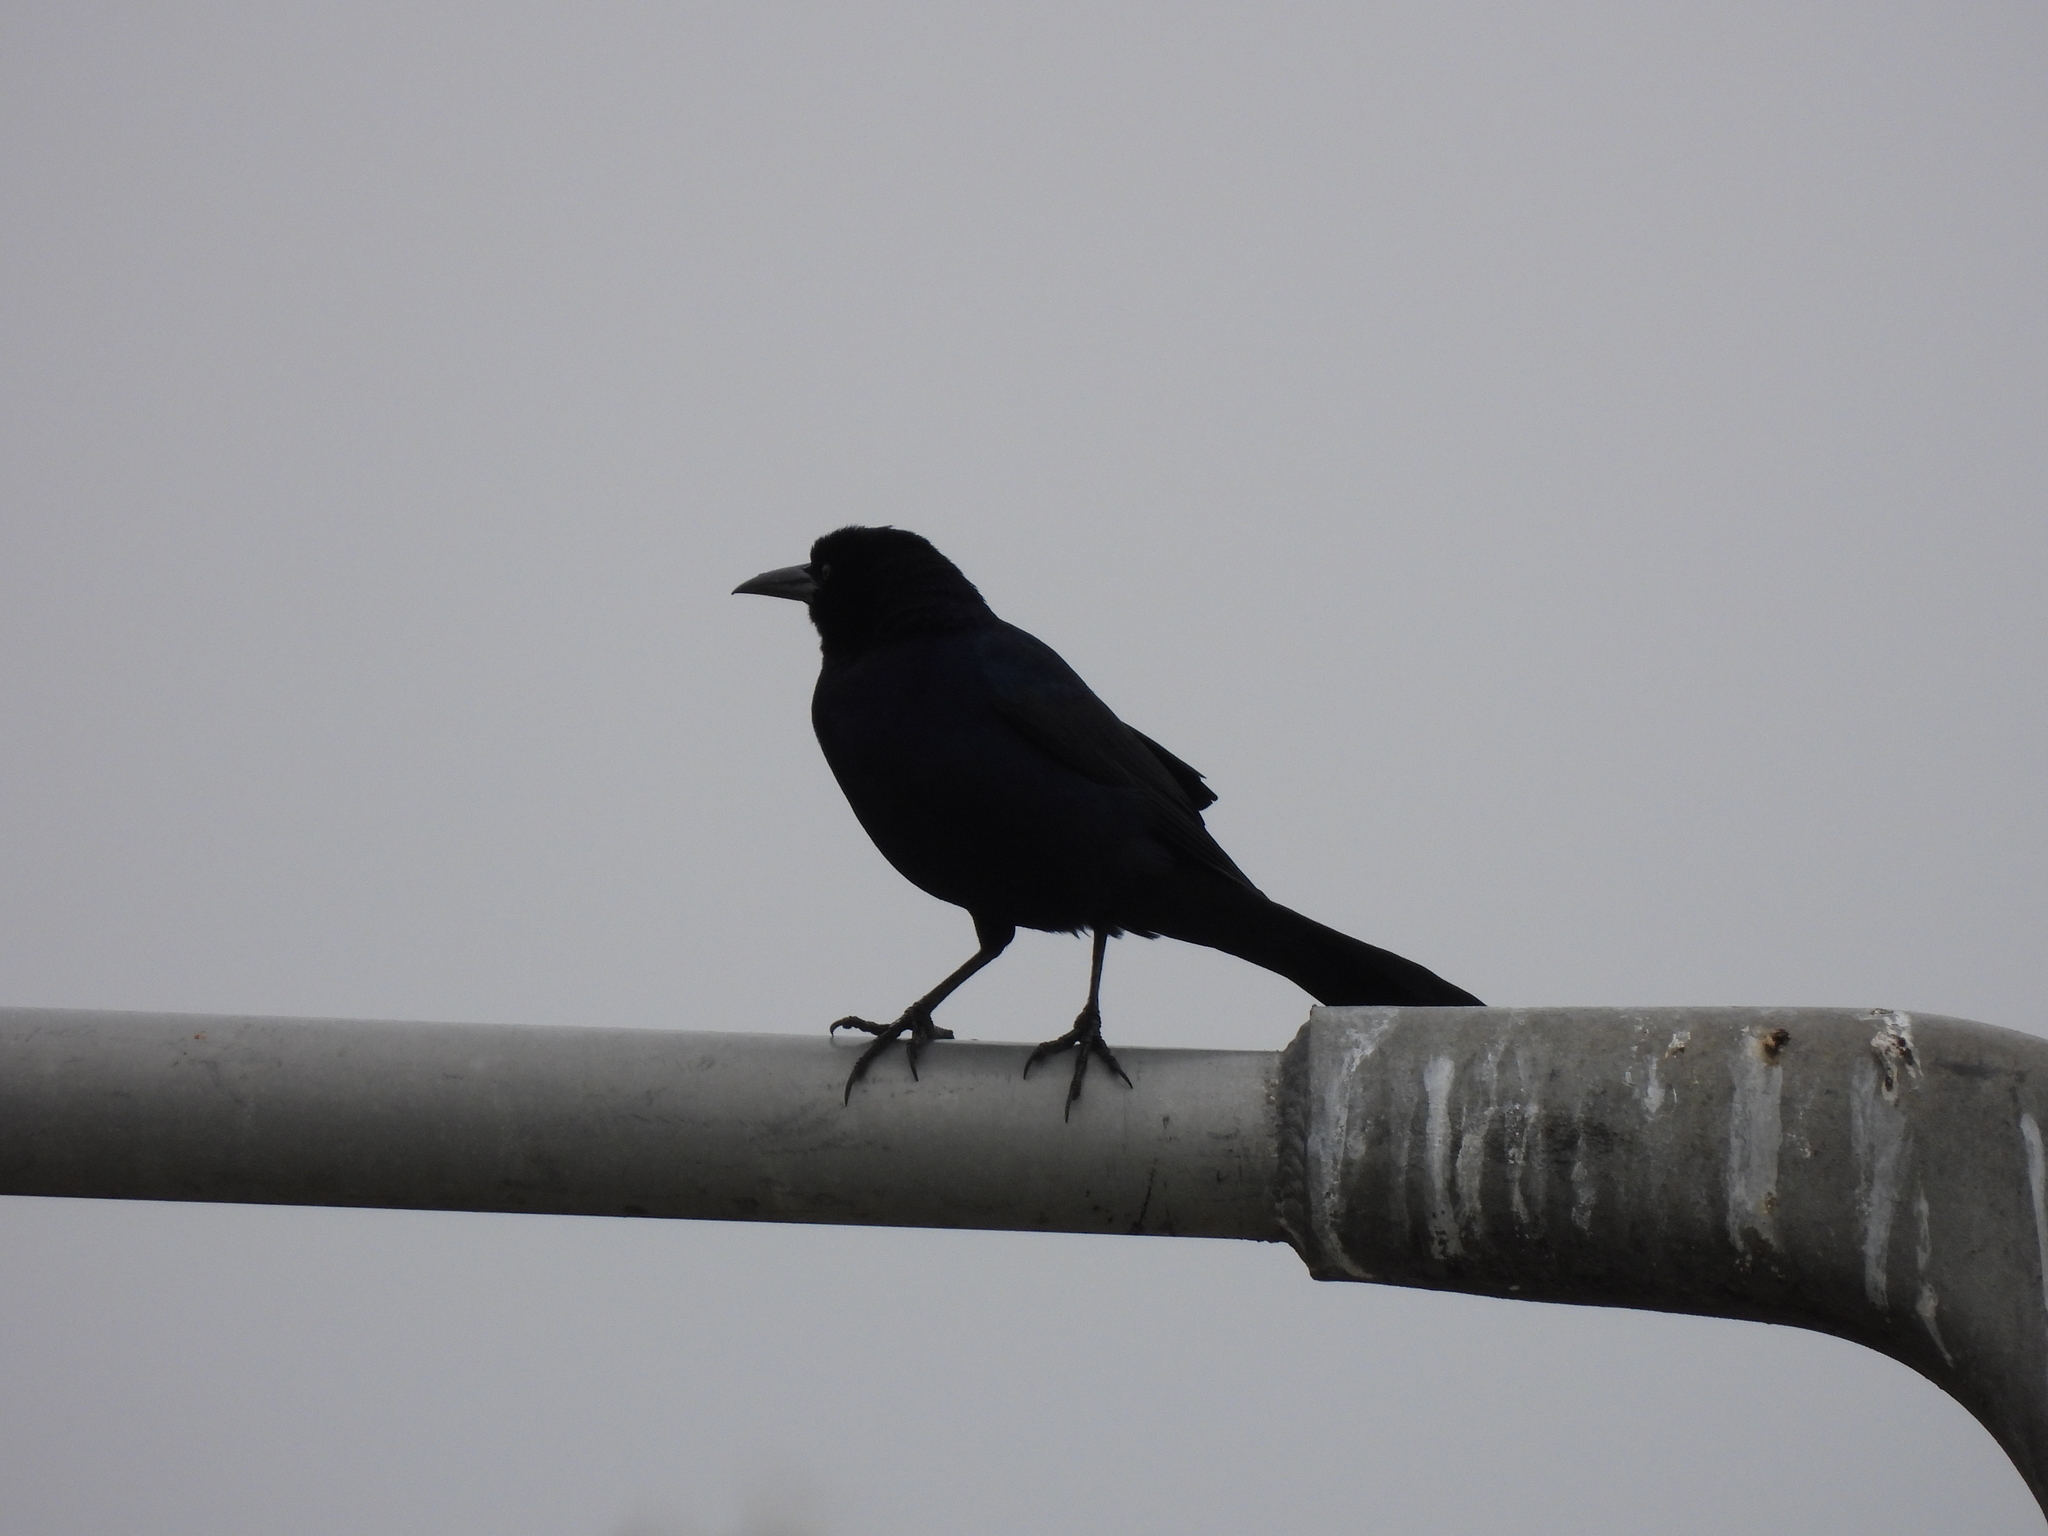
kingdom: Animalia
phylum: Chordata
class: Aves
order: Passeriformes
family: Icteridae
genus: Quiscalus
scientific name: Quiscalus major
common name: Boat-tailed grackle
